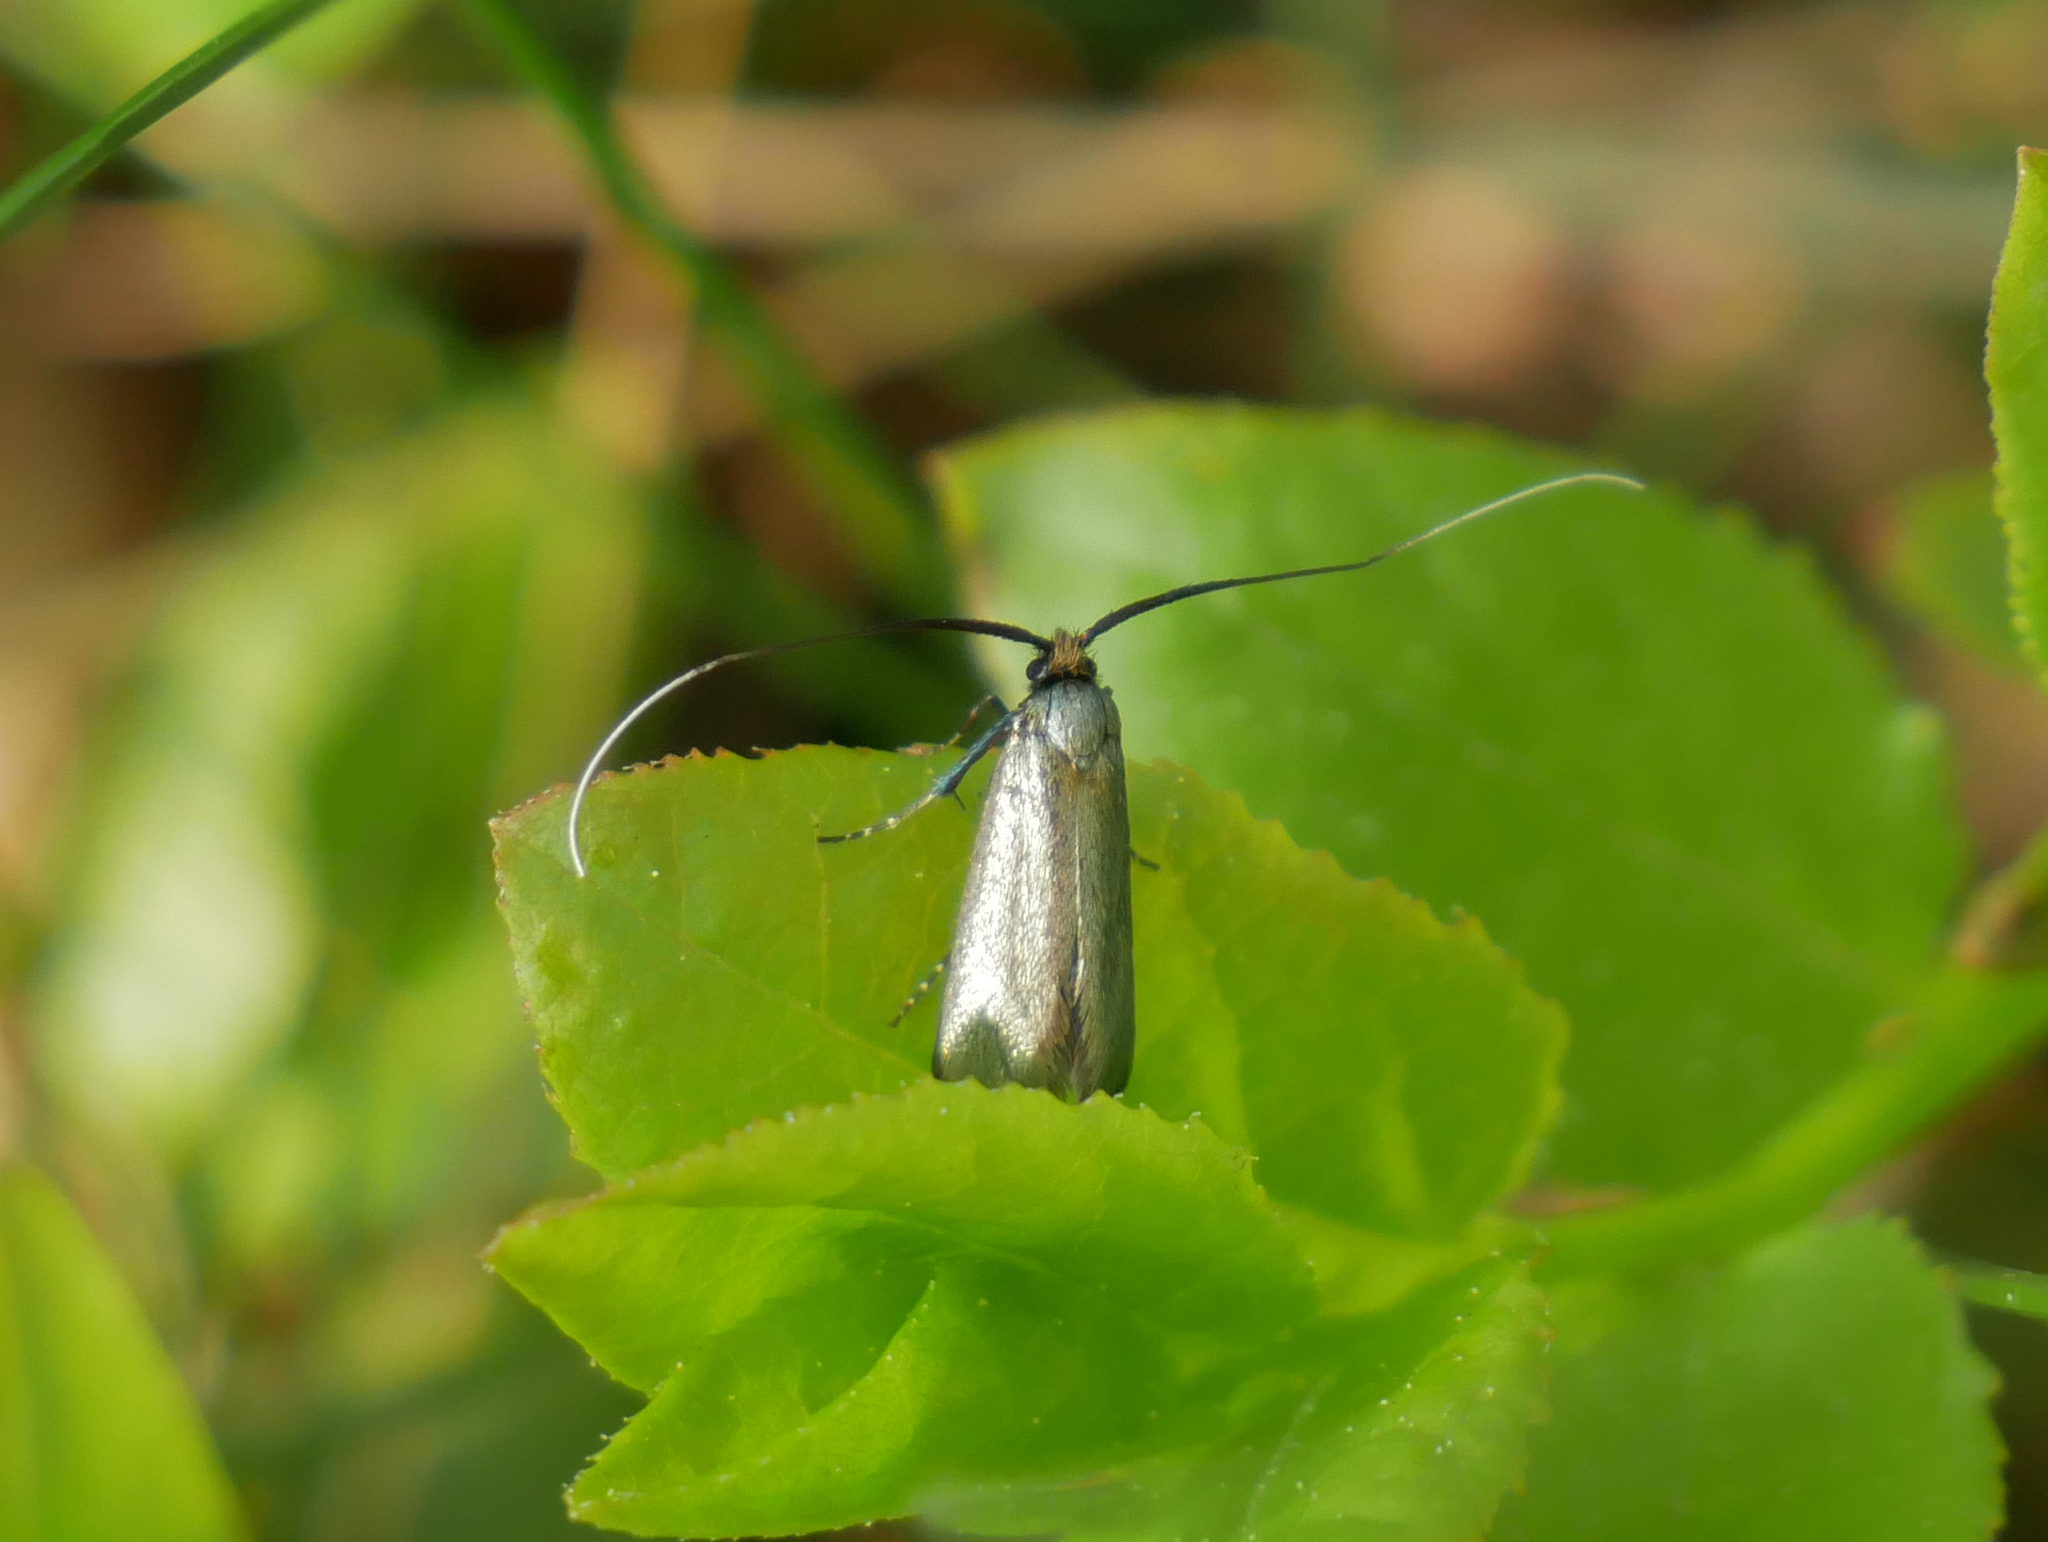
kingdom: Animalia
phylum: Arthropoda
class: Insecta
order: Lepidoptera
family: Adelidae
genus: Adela
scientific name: Adela viridella
